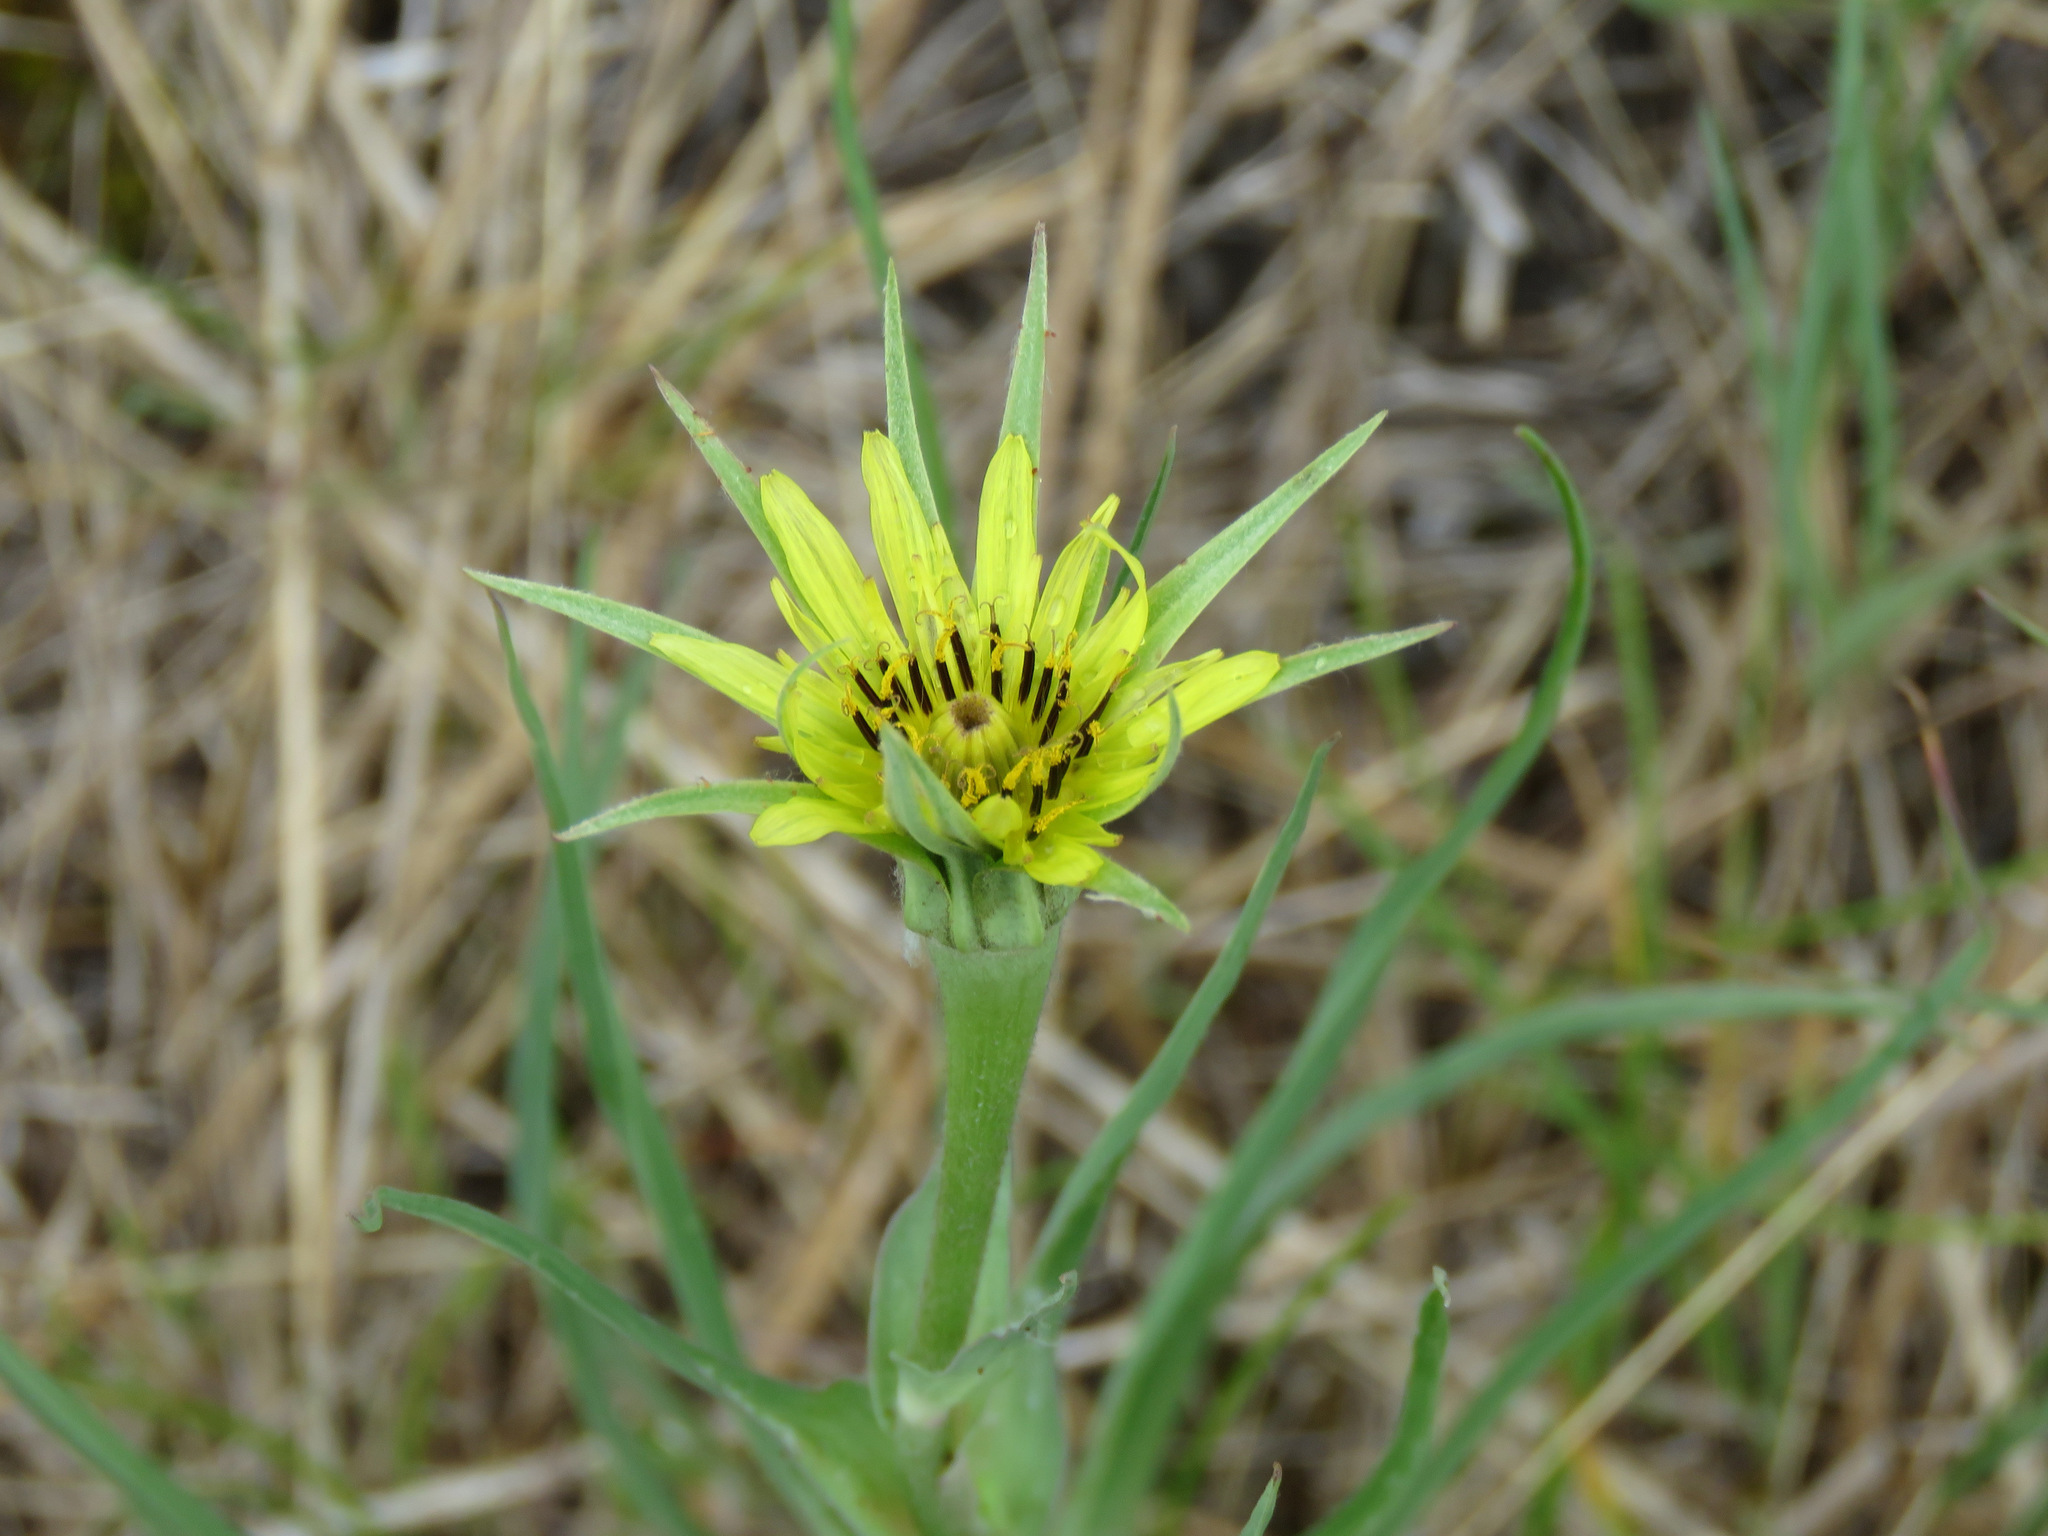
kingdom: Plantae
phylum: Tracheophyta
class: Magnoliopsida
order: Asterales
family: Asteraceae
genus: Tragopogon
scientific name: Tragopogon dubius
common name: Yellow salsify
